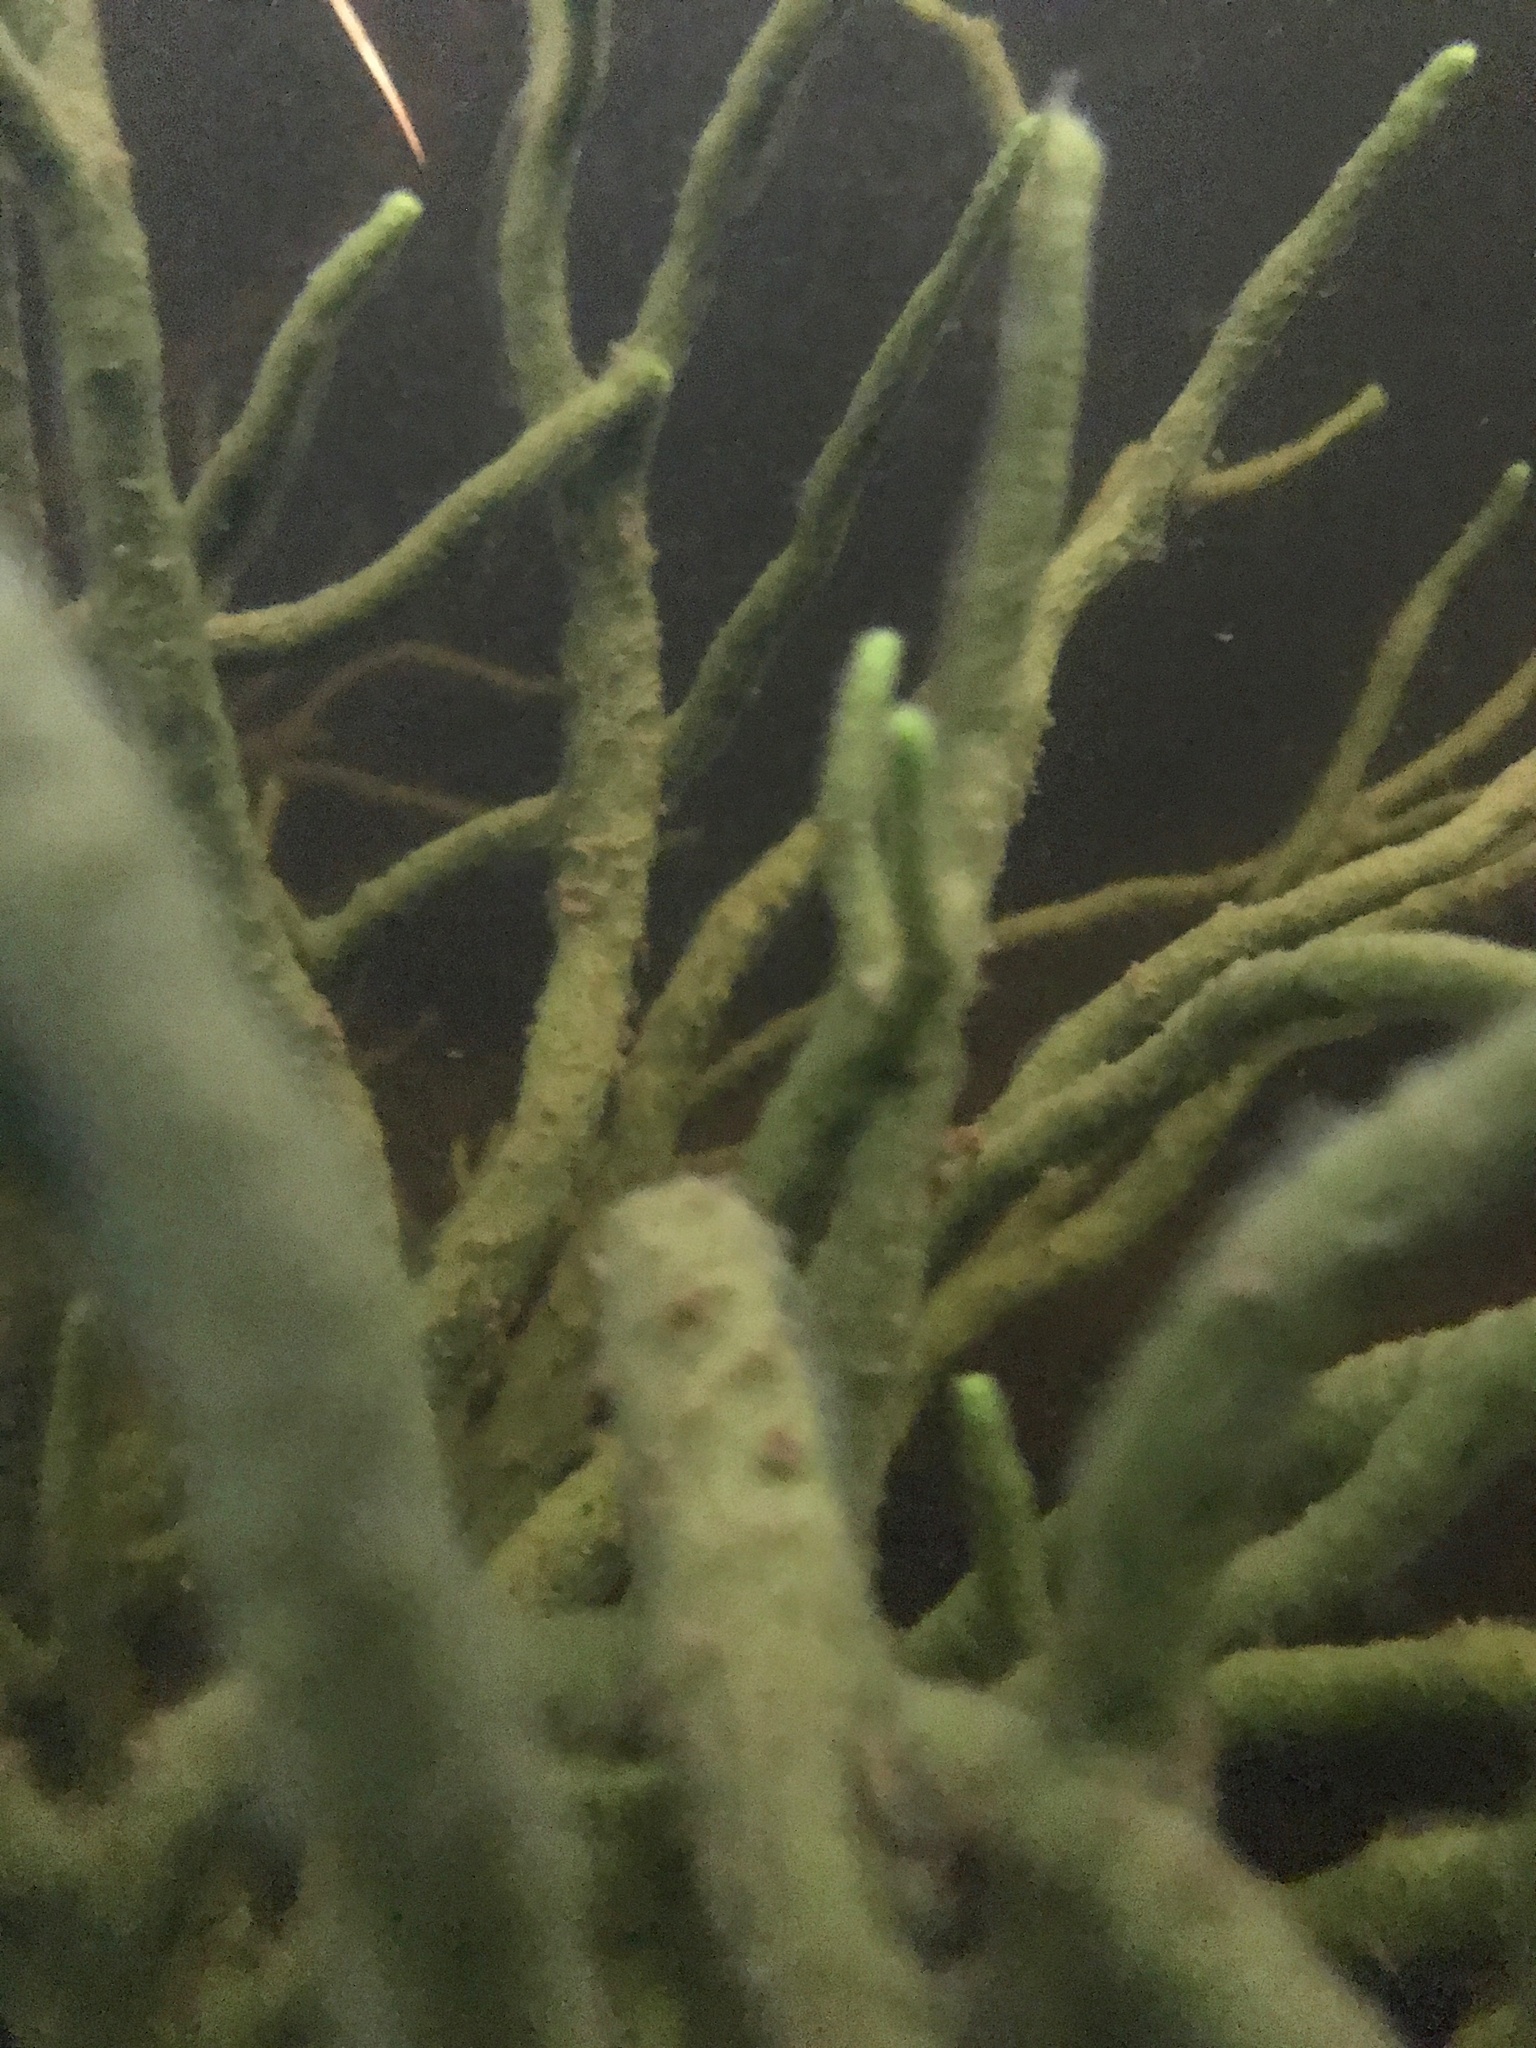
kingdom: Animalia
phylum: Porifera
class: Demospongiae
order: Spongillida
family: Spongillidae
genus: Spongilla
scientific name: Spongilla lacustris
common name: Common freshwater sponge
